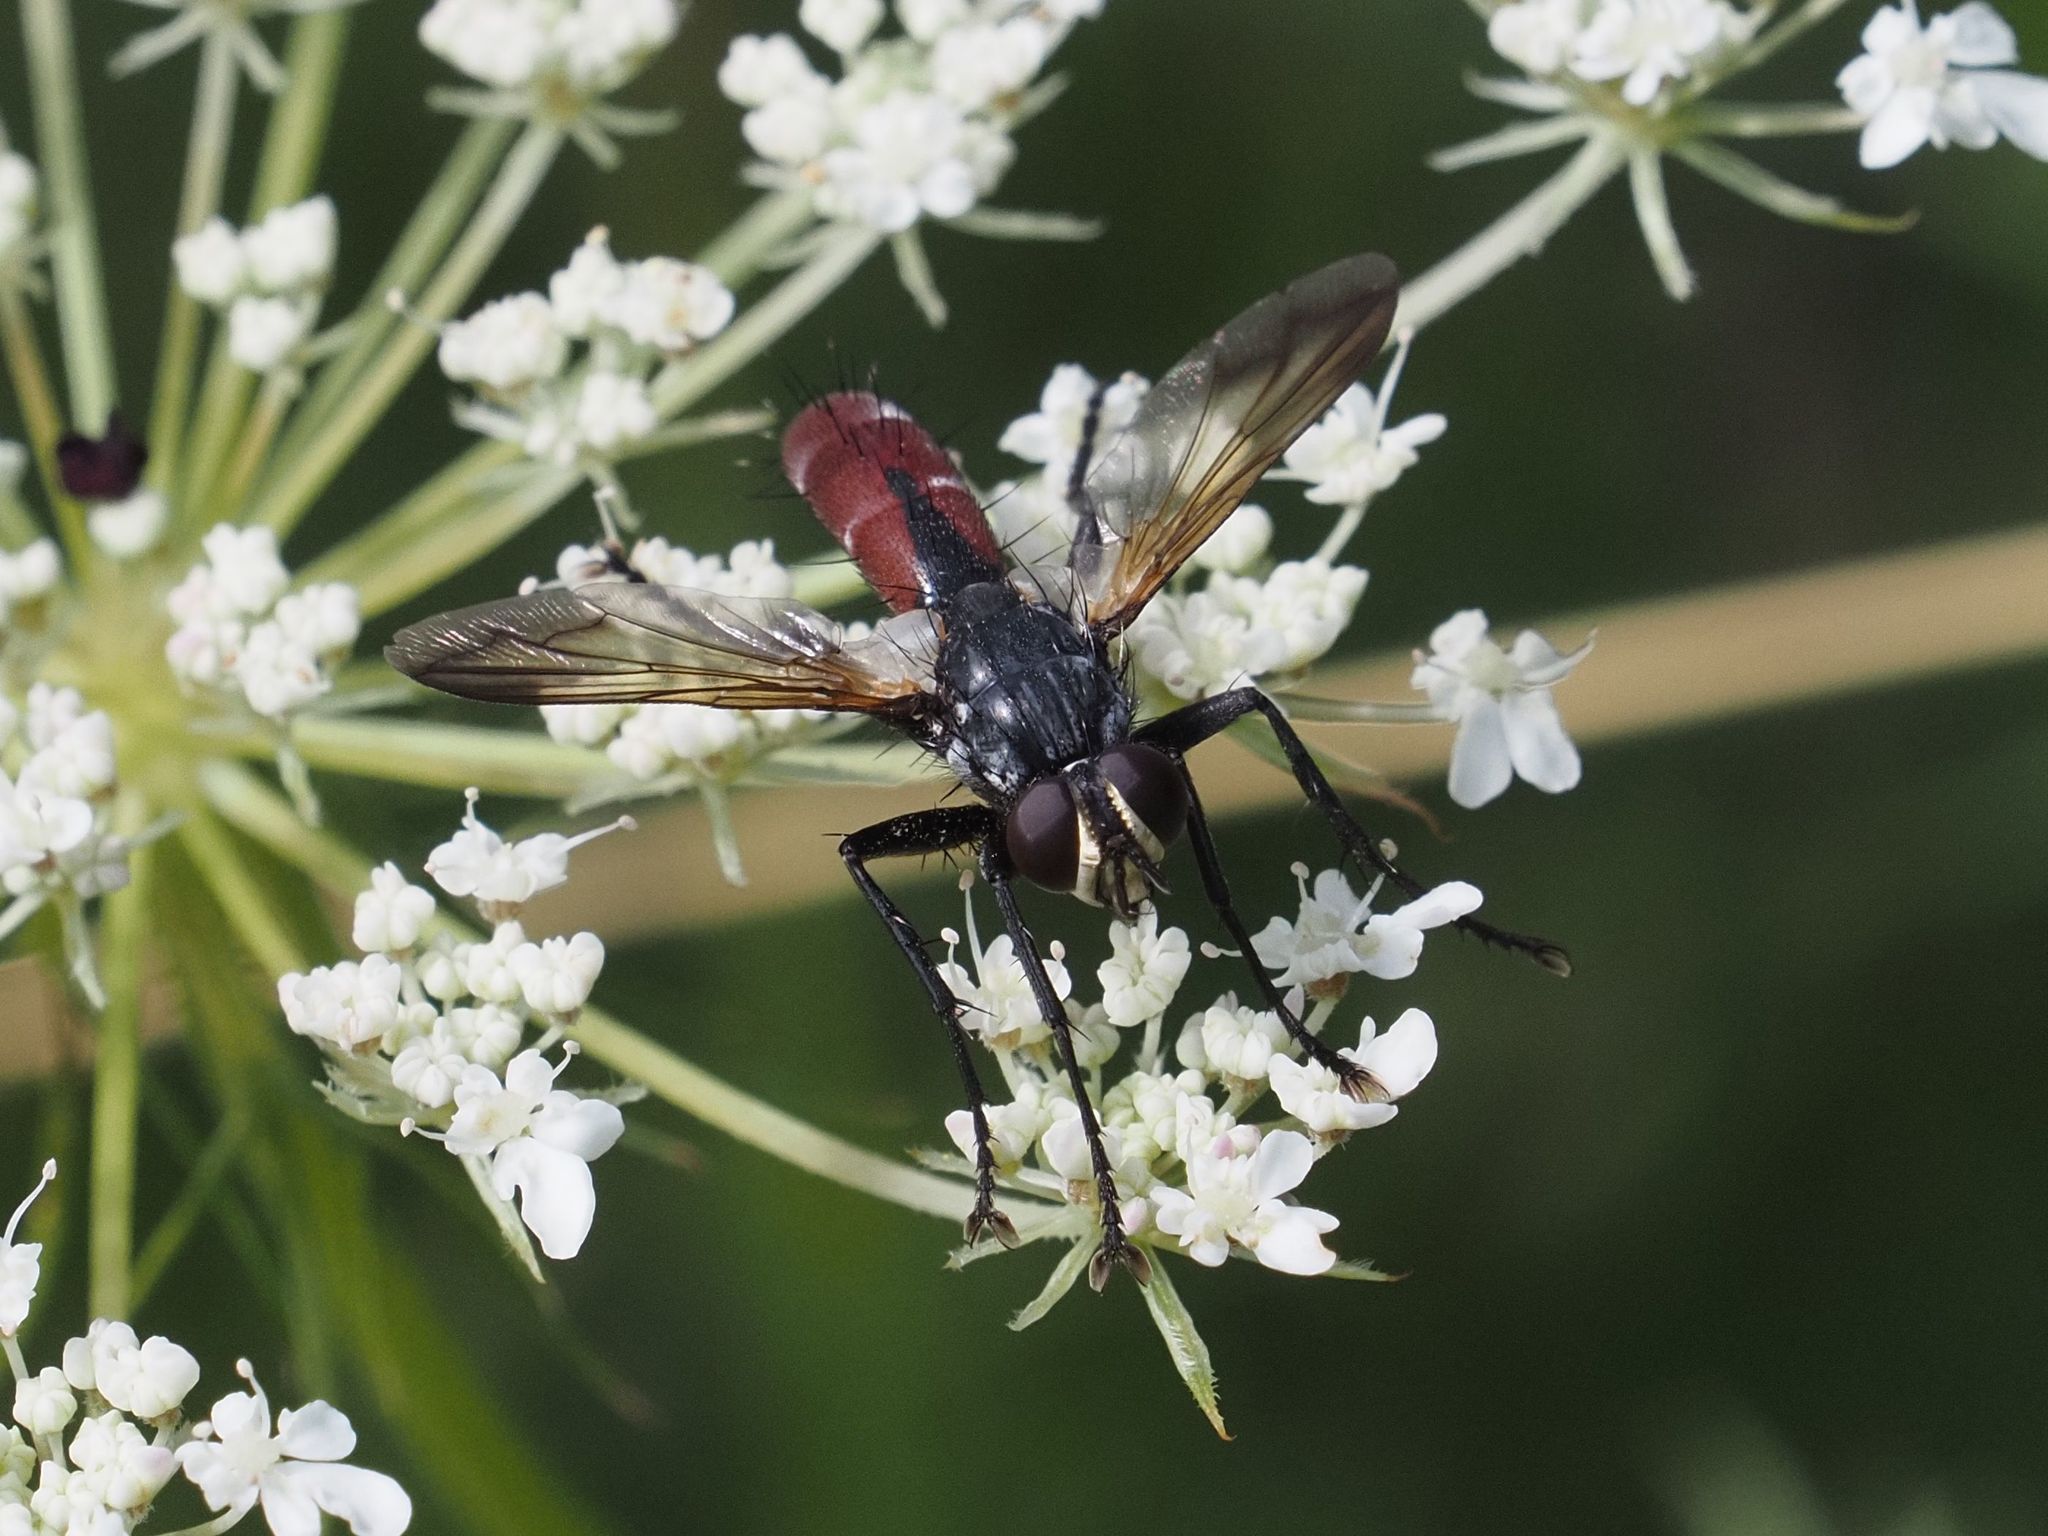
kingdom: Animalia
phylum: Arthropoda
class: Insecta
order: Diptera
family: Tachinidae
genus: Cylindromyia
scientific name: Cylindromyia bicolor
